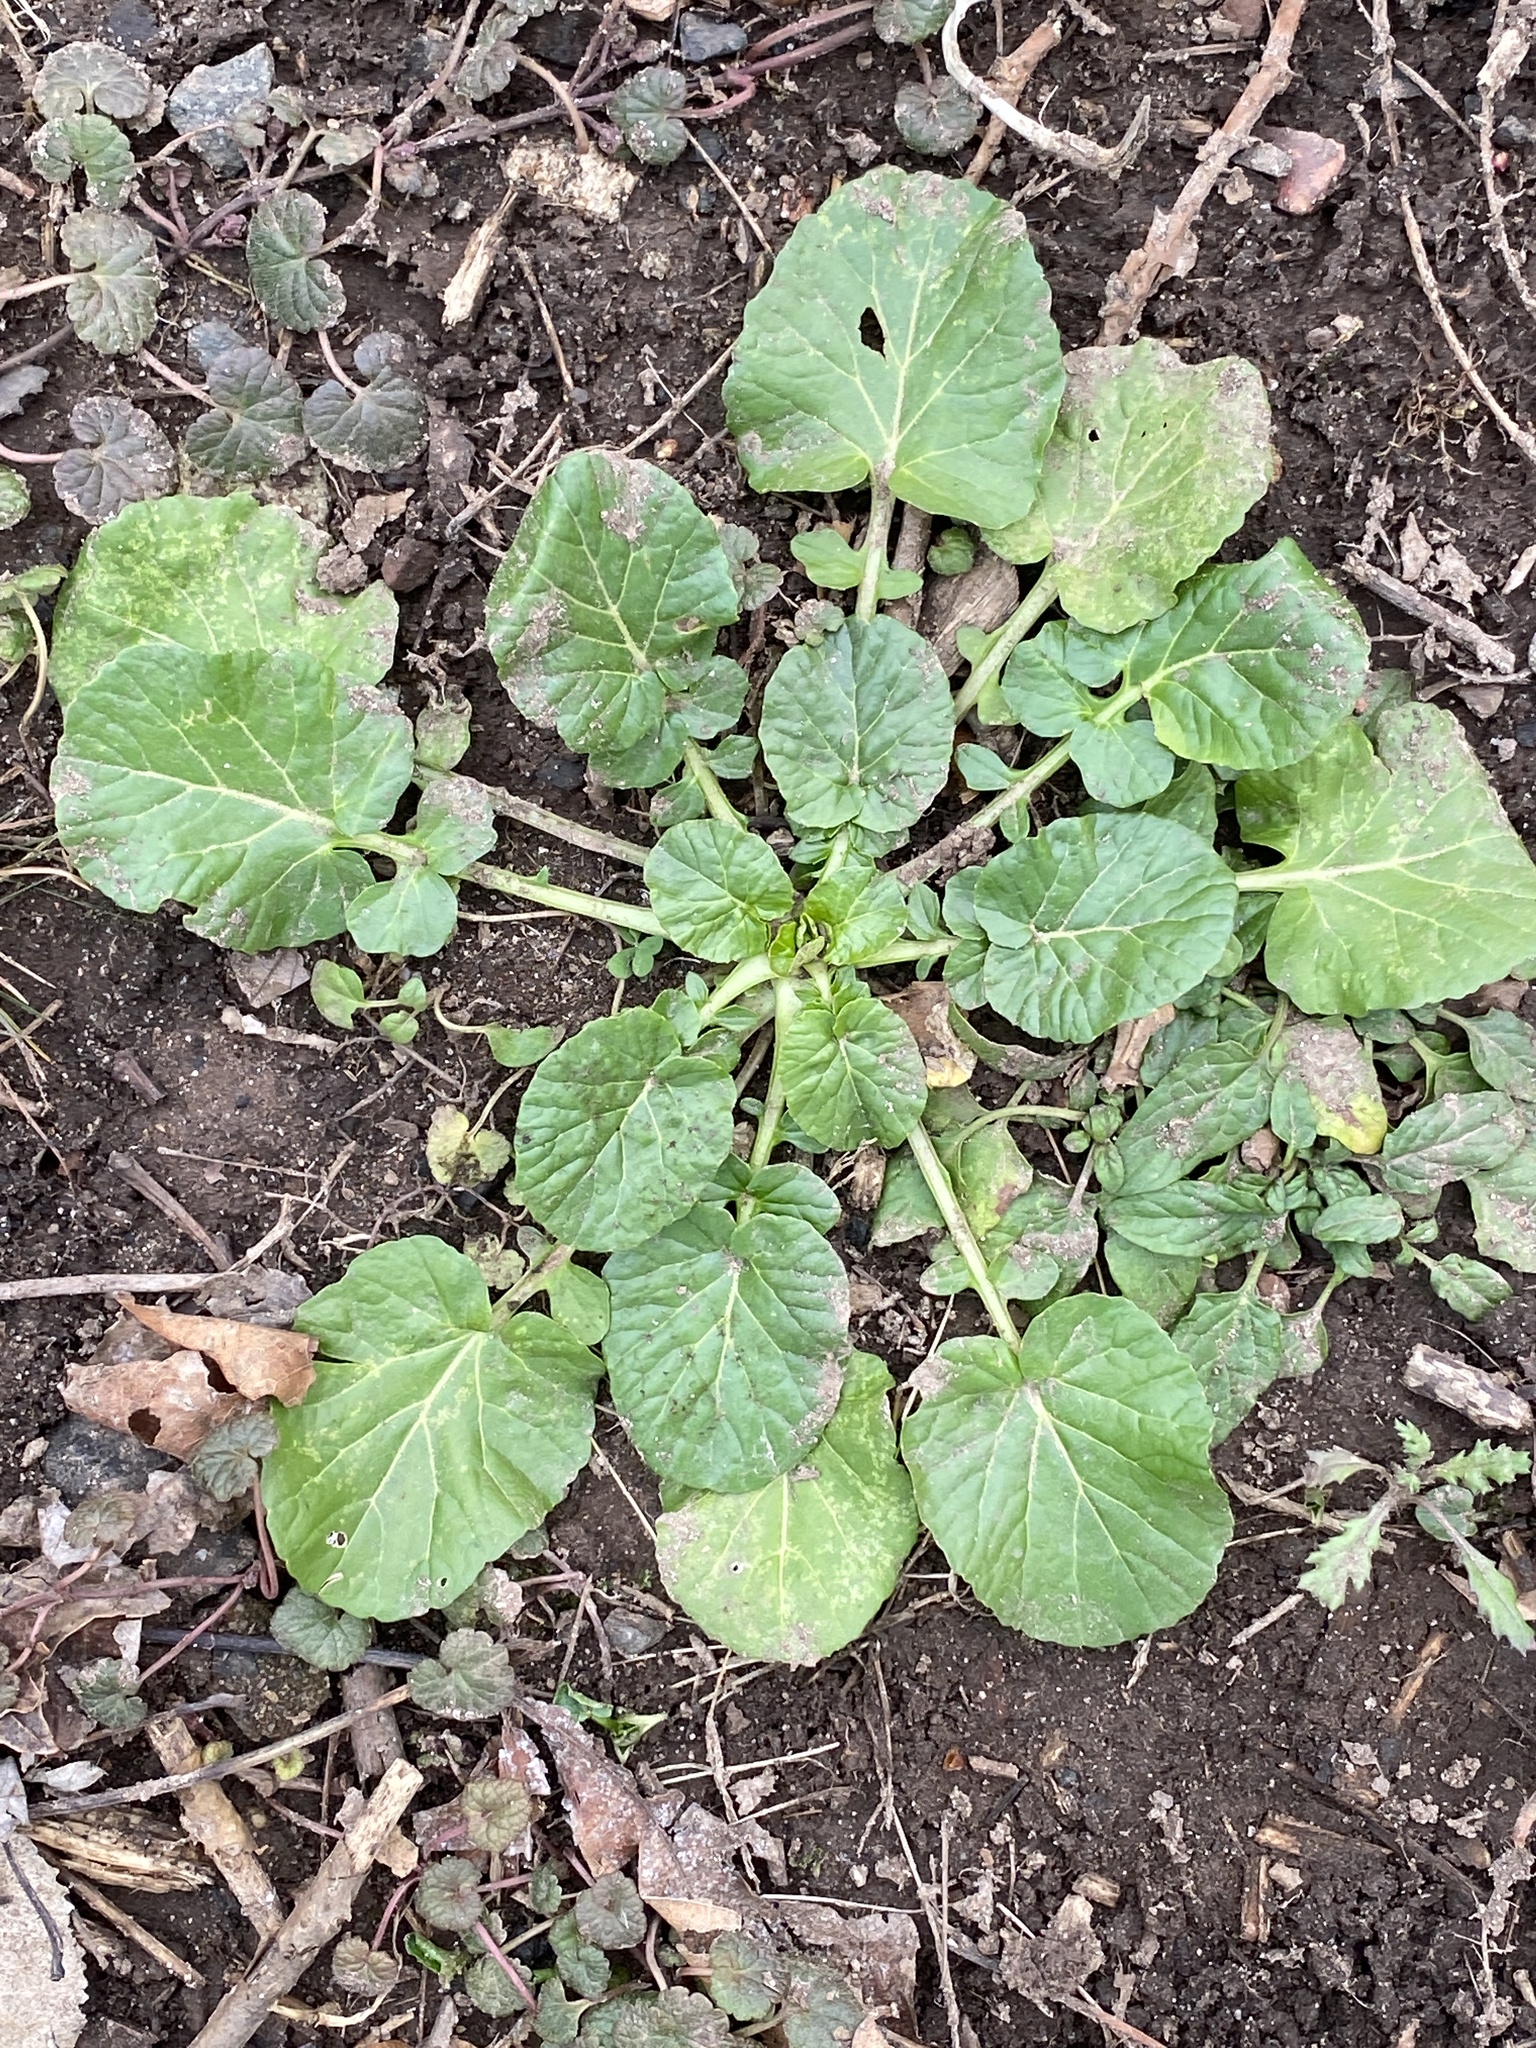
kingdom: Plantae
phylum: Tracheophyta
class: Magnoliopsida
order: Brassicales
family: Brassicaceae
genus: Barbarea
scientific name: Barbarea vulgaris
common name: Cressy-greens
